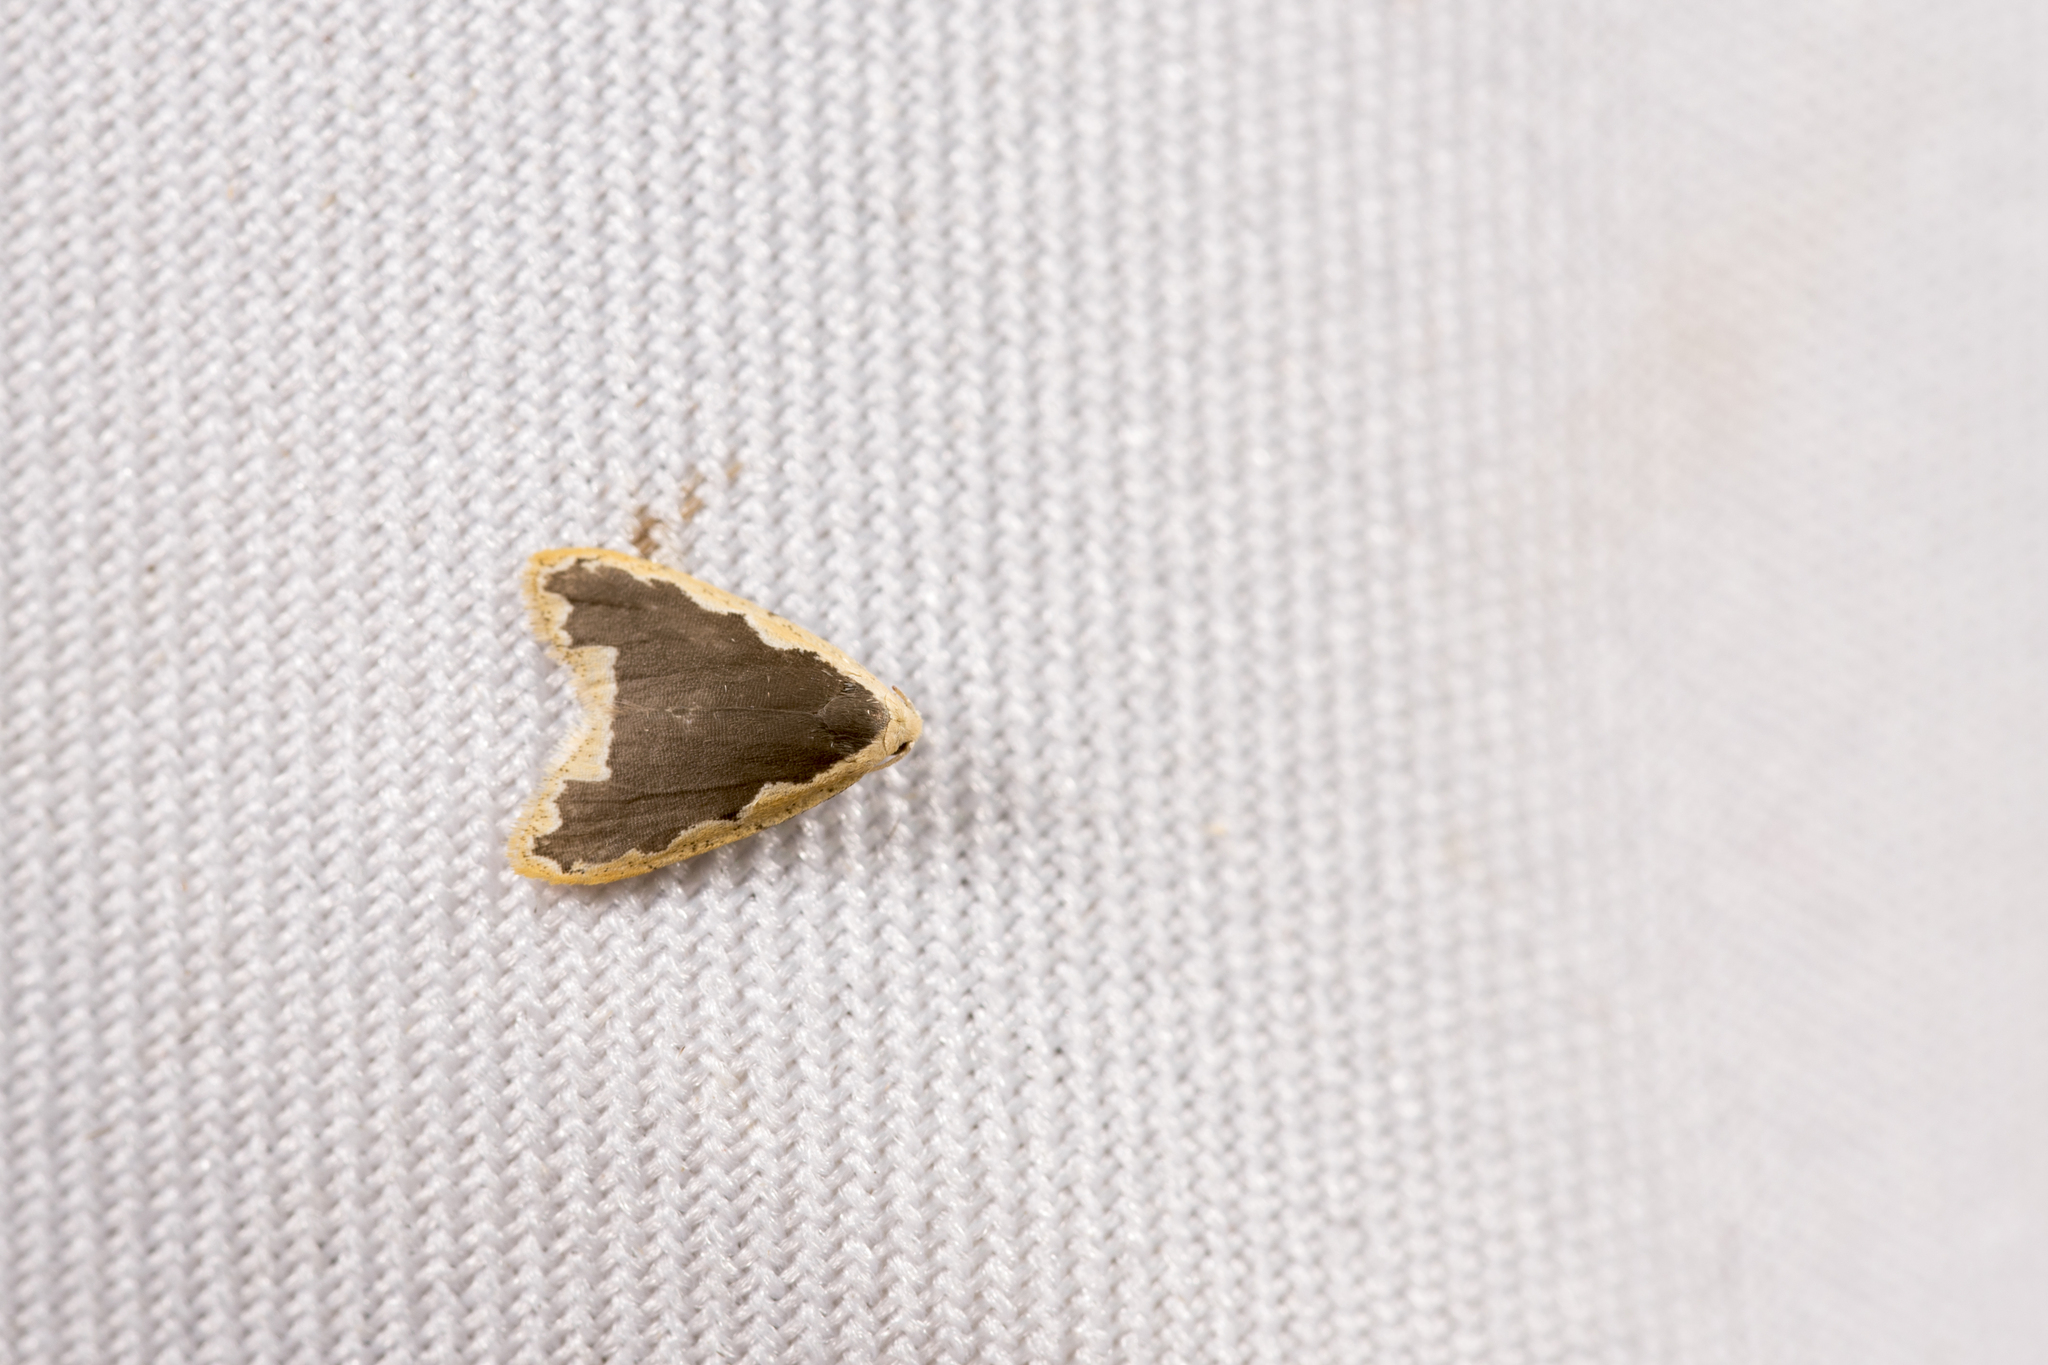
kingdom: Animalia
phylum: Arthropoda
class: Insecta
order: Lepidoptera
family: Erebidae
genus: Diduga
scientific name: Diduga nantouensis
